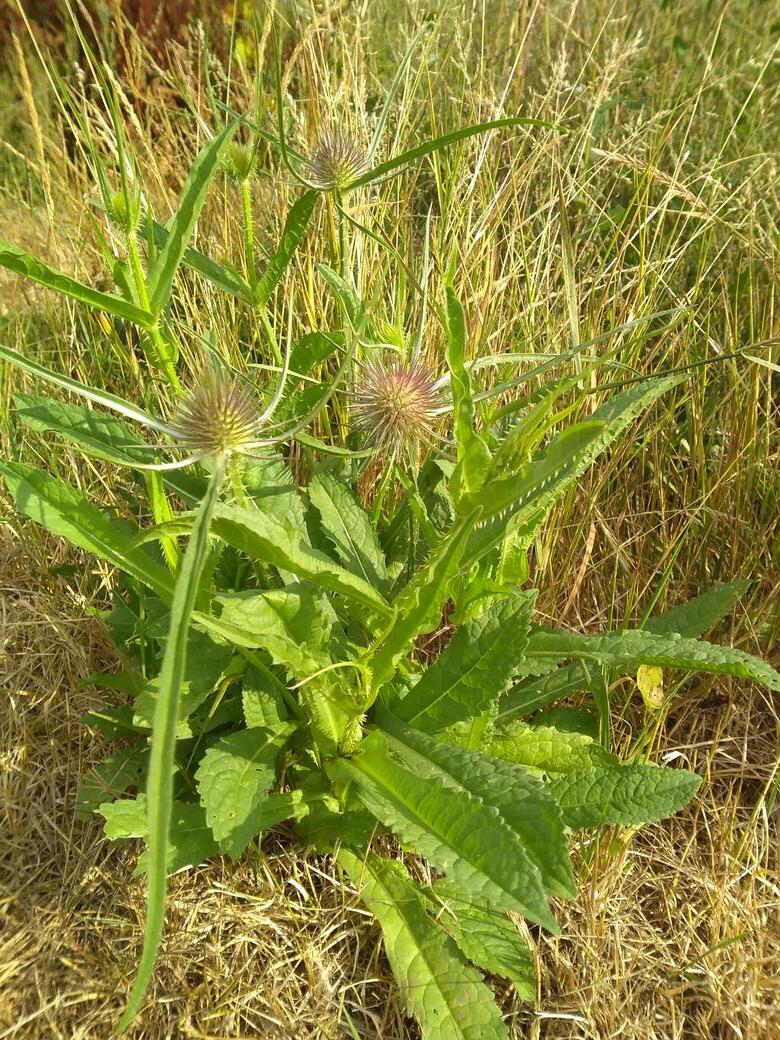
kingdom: Plantae
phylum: Tracheophyta
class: Magnoliopsida
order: Dipsacales
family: Caprifoliaceae
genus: Dipsacus
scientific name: Dipsacus fullonum
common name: Teasel
